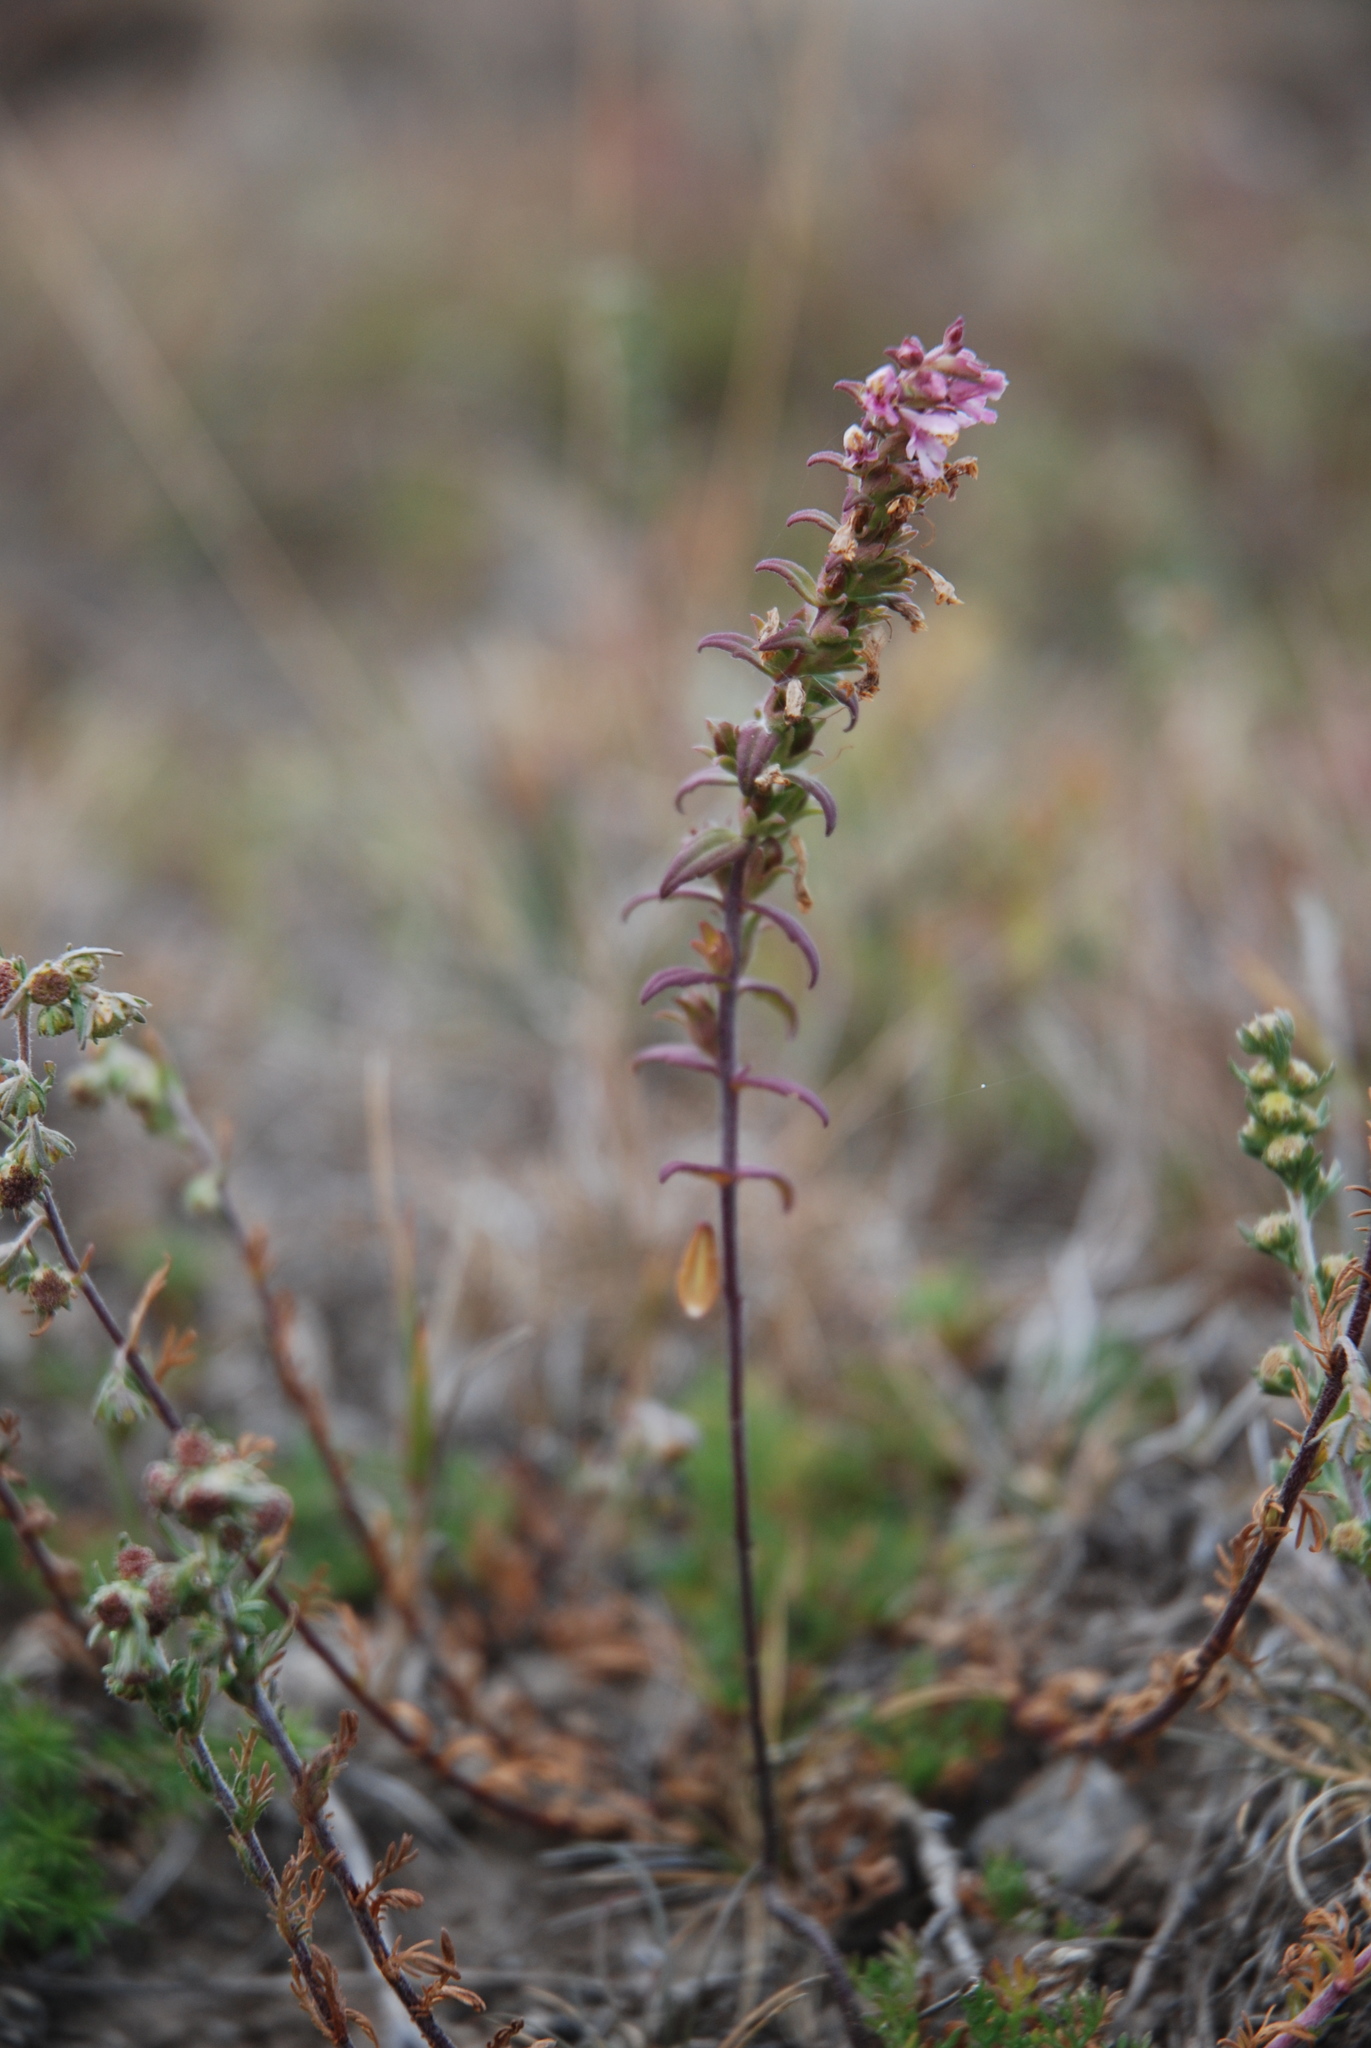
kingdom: Plantae
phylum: Tracheophyta
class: Magnoliopsida
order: Lamiales
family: Orobanchaceae
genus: Odontites
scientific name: Odontites vernus
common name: Red bartsia
